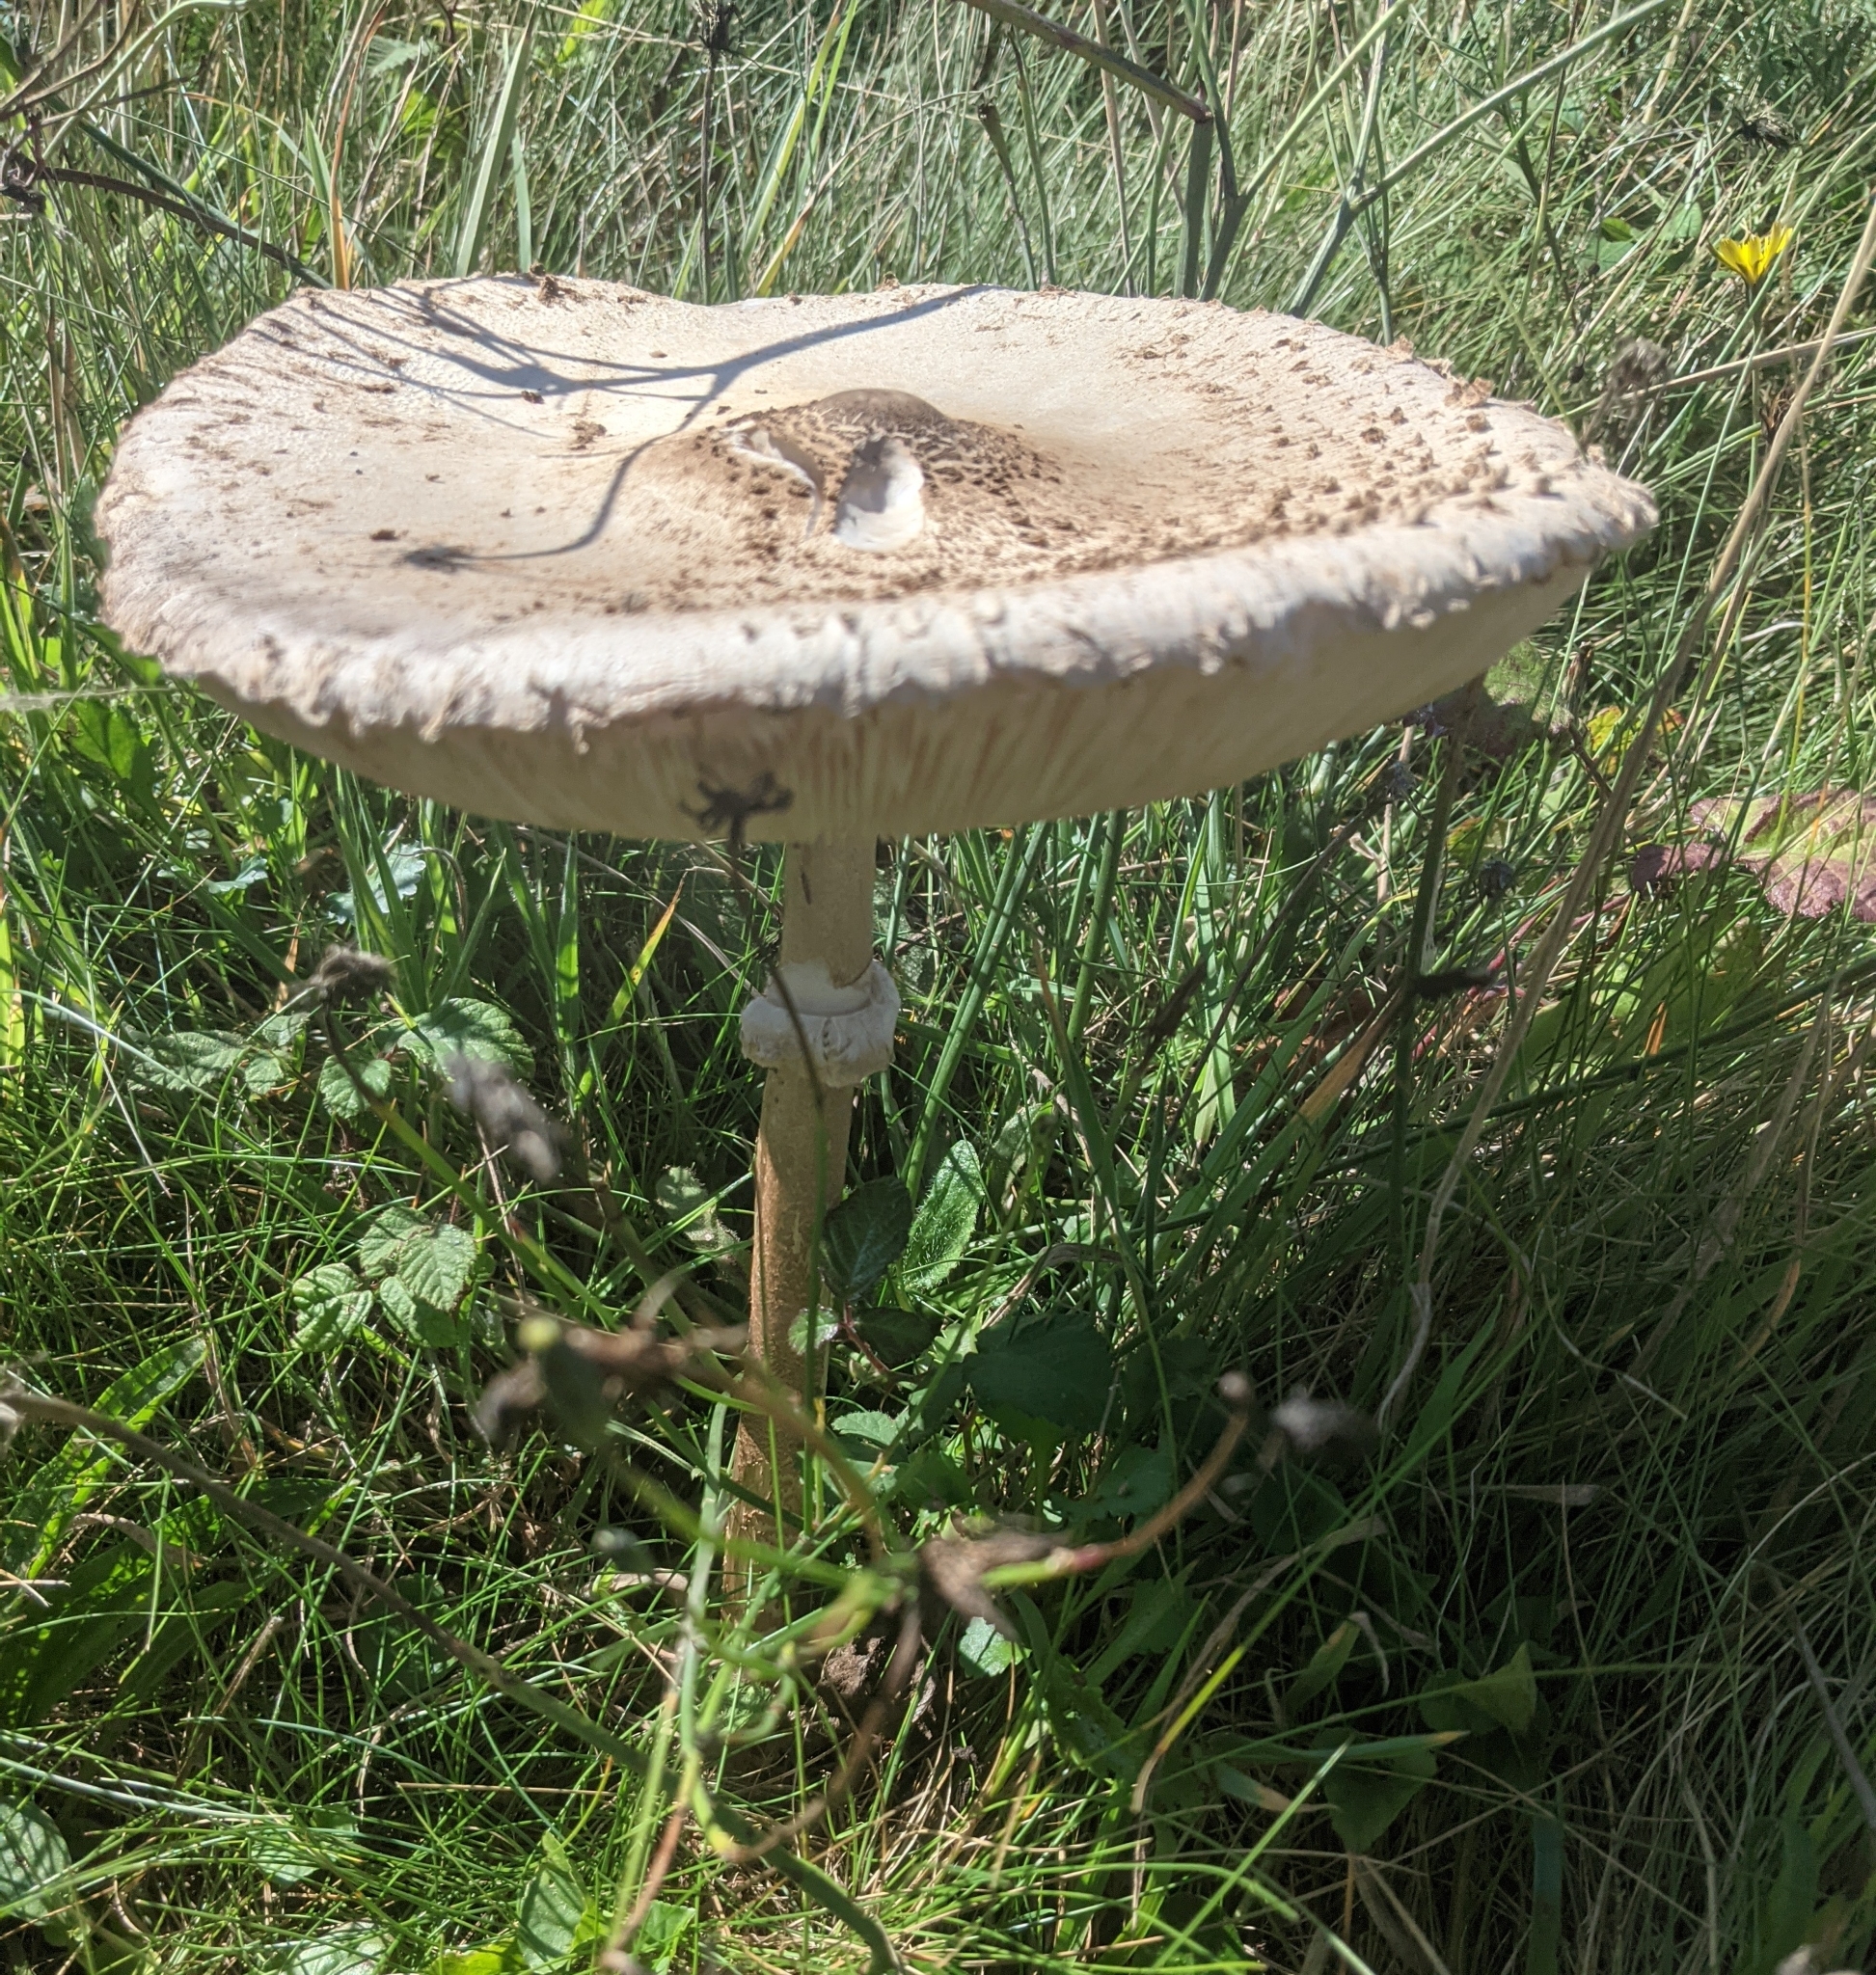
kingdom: Fungi
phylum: Basidiomycota
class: Agaricomycetes
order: Agaricales
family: Agaricaceae
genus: Macrolepiota
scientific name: Macrolepiota procera
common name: Parasol
